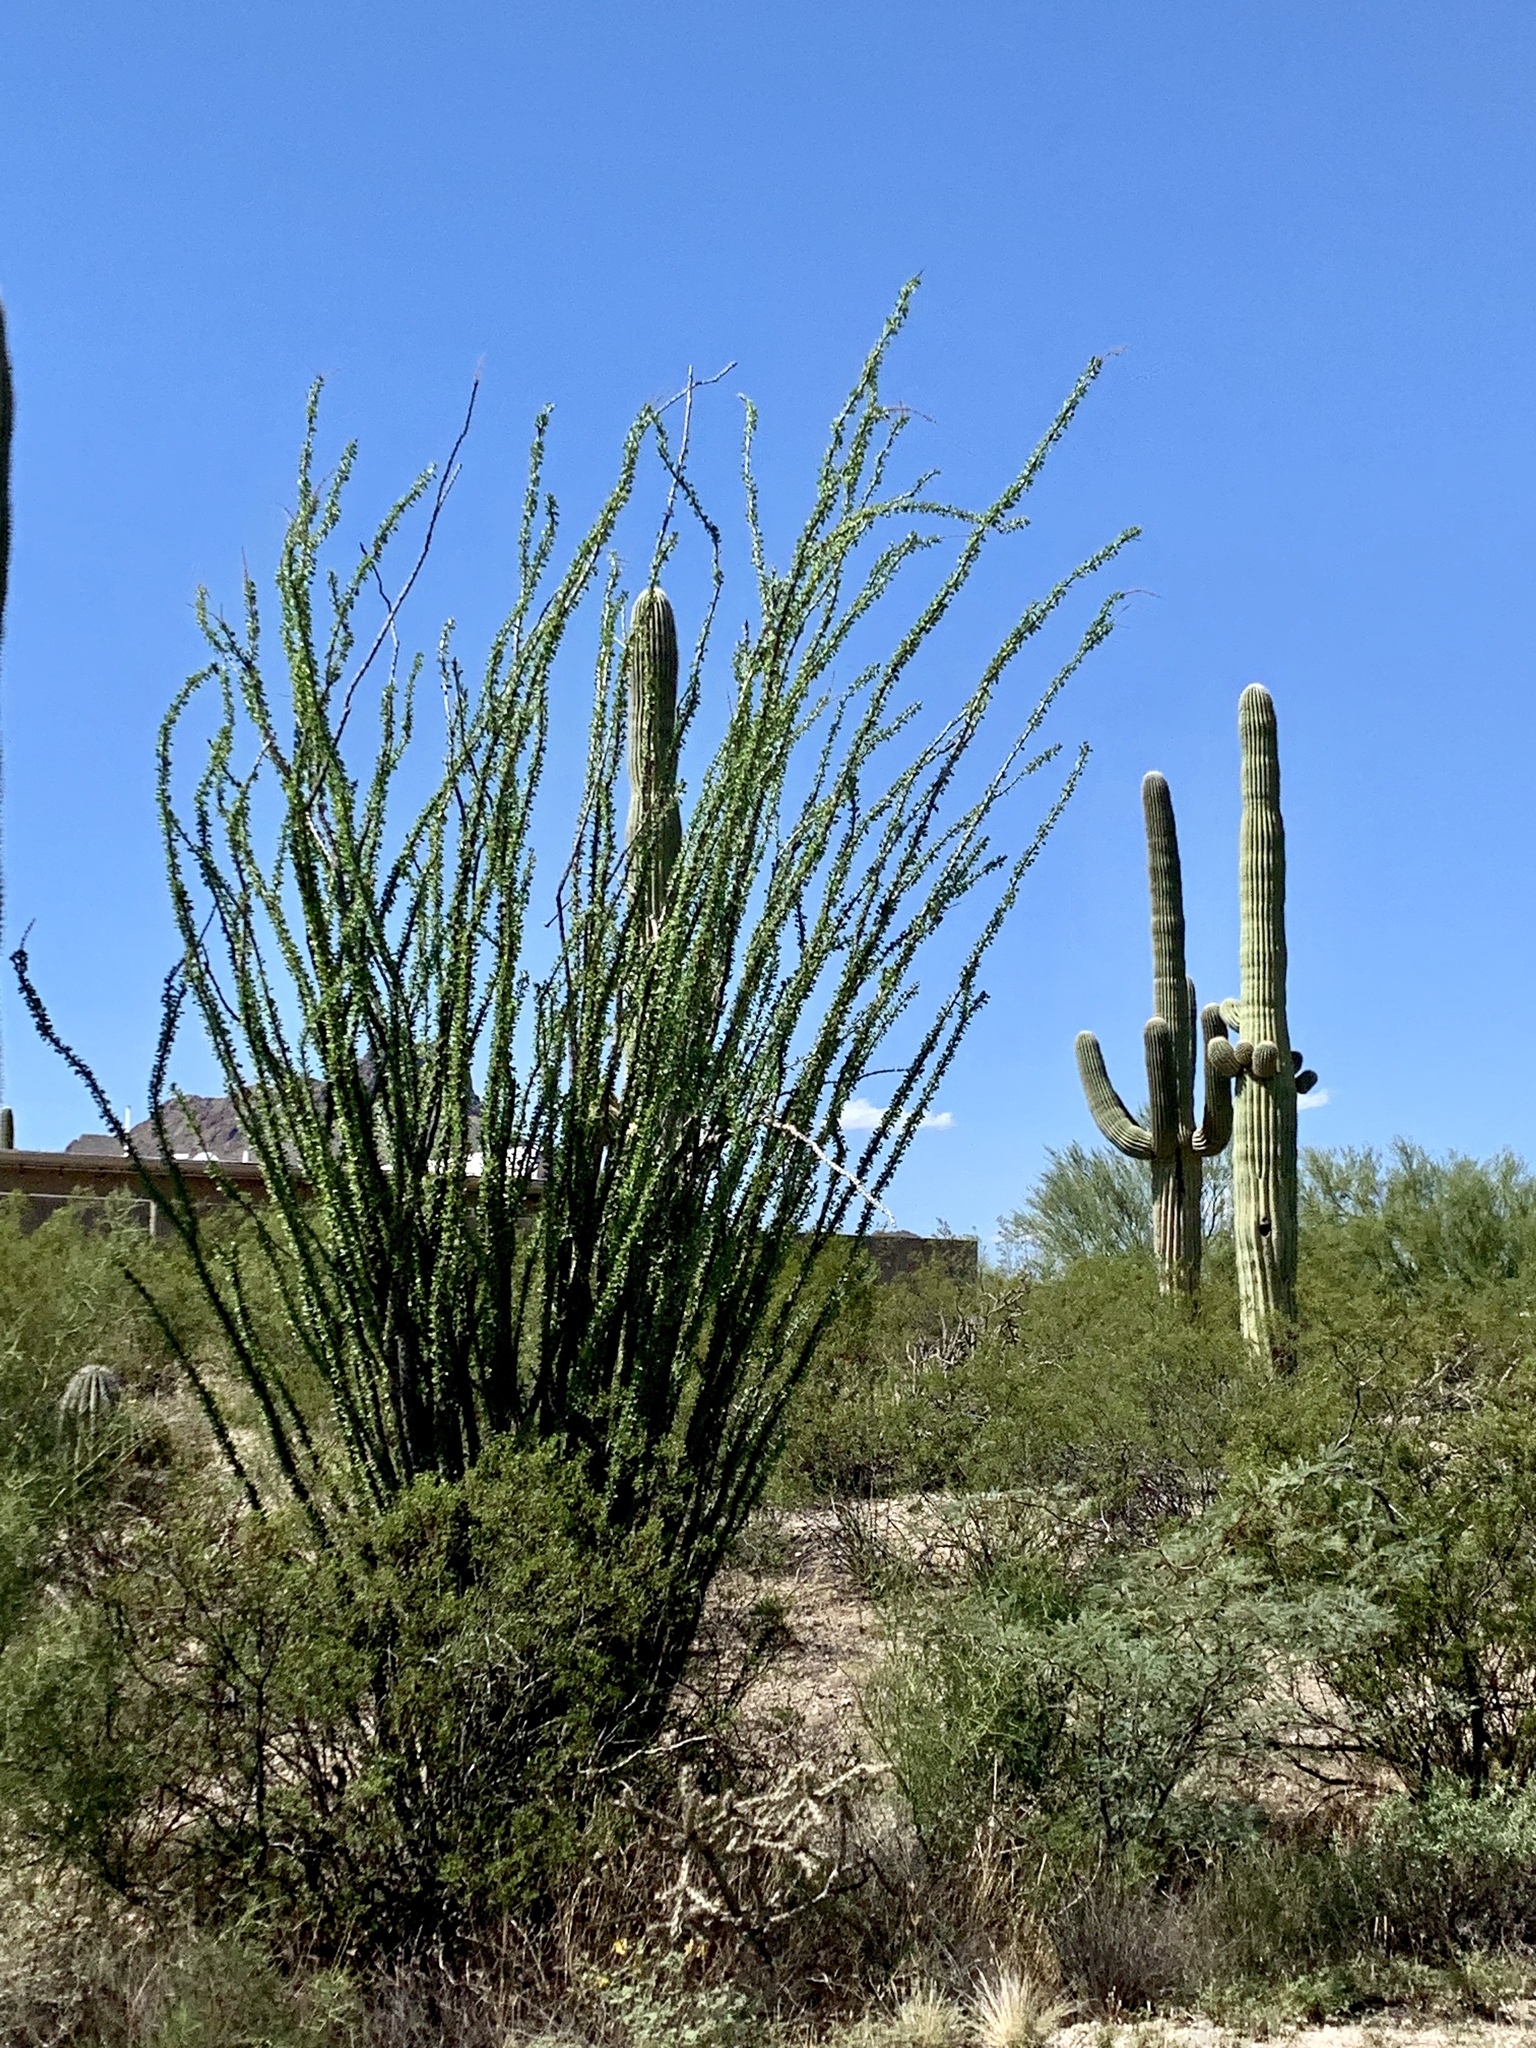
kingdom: Plantae
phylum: Tracheophyta
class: Magnoliopsida
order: Ericales
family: Fouquieriaceae
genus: Fouquieria
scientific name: Fouquieria splendens
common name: Vine-cactus
